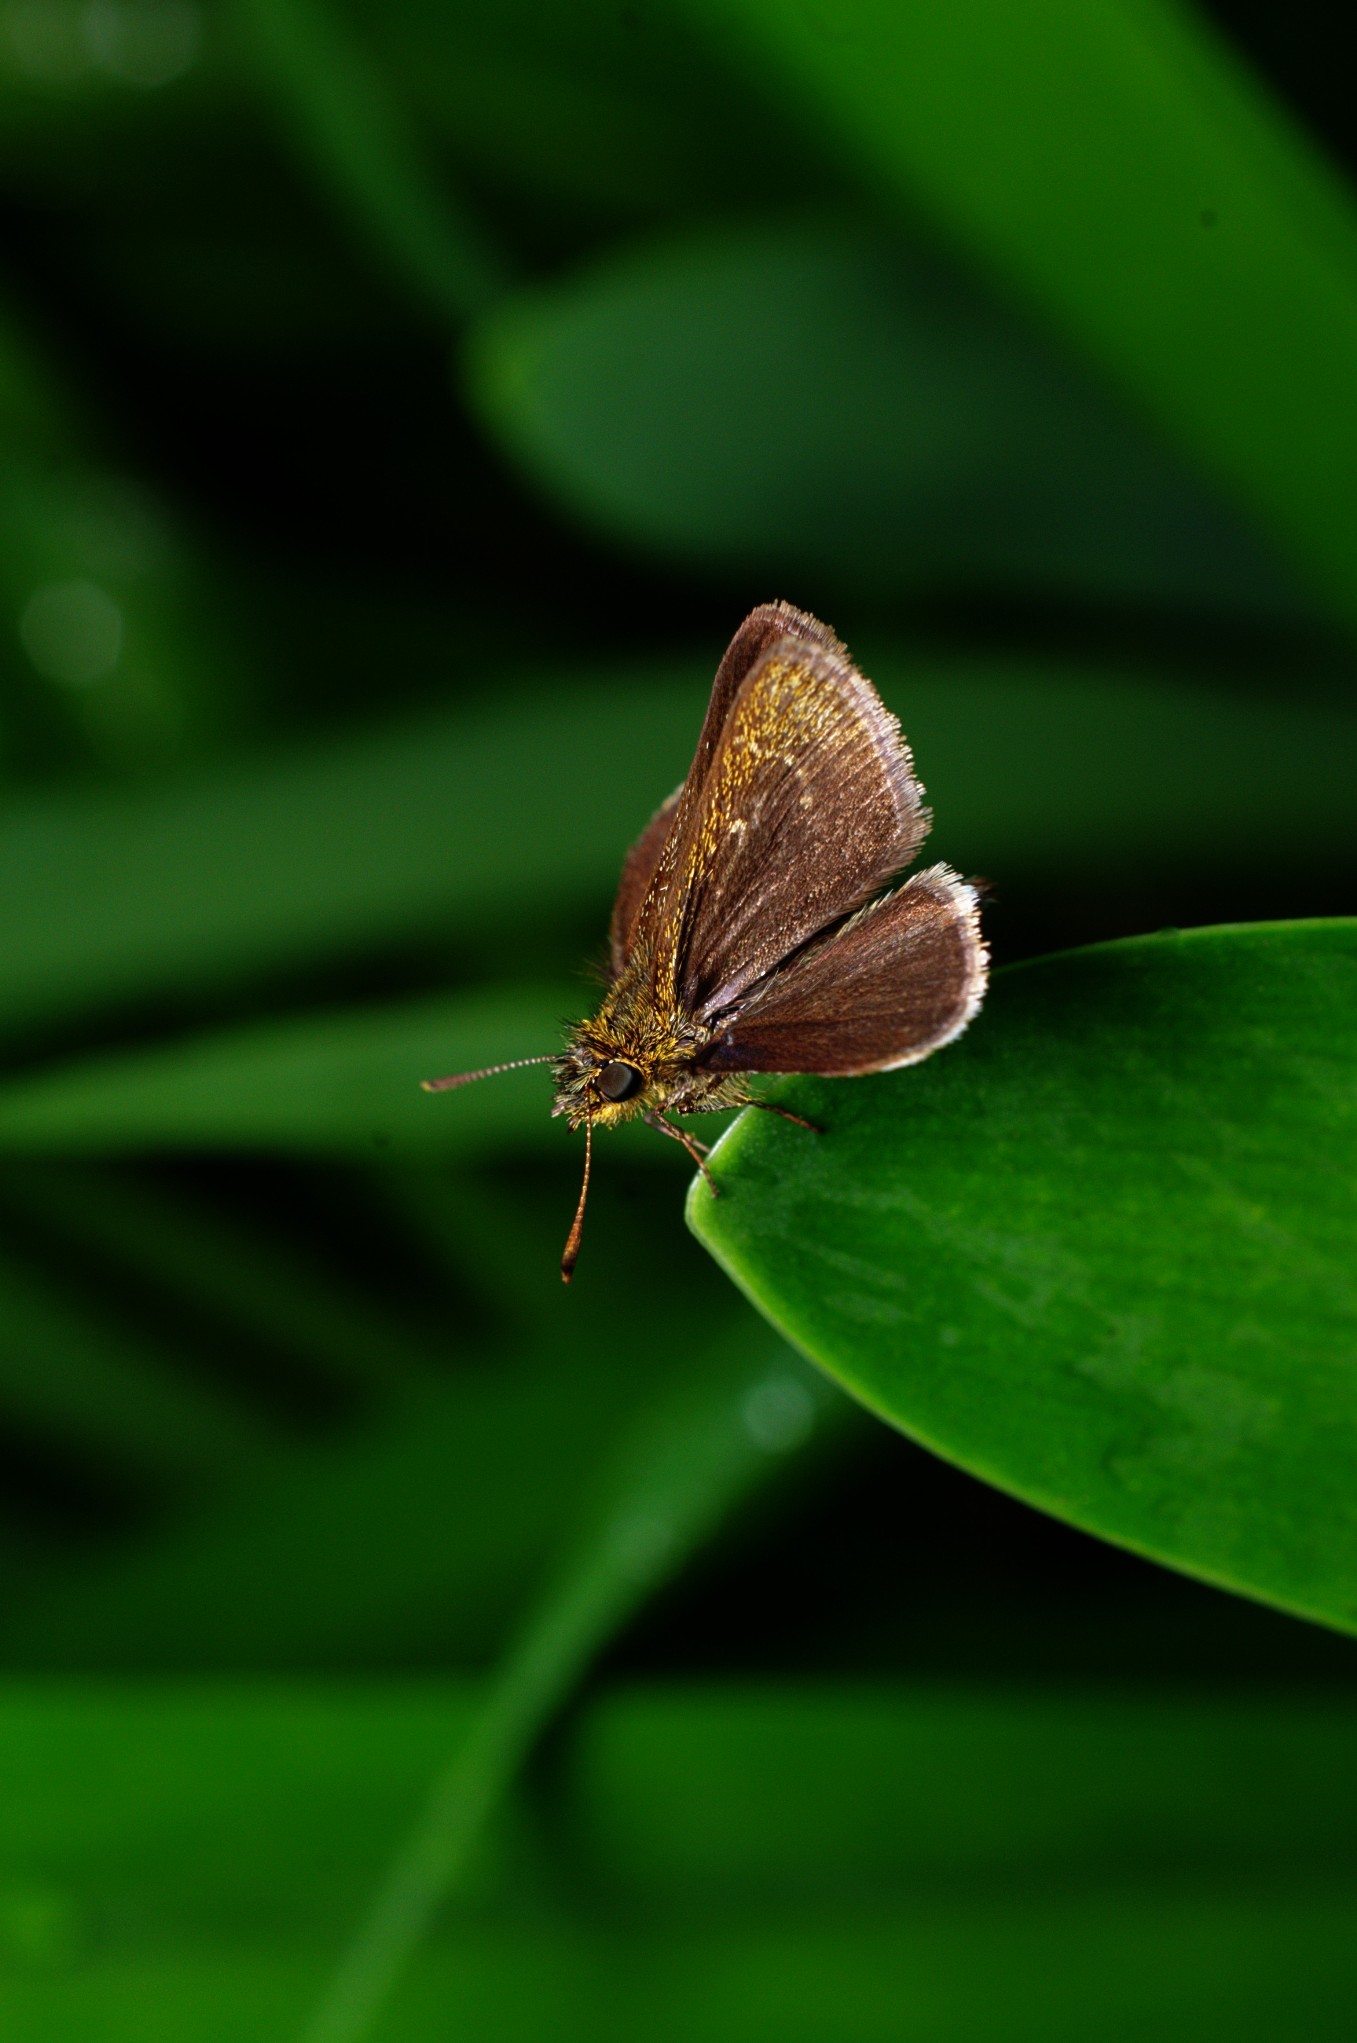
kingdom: Animalia
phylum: Arthropoda
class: Insecta
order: Lepidoptera
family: Hesperiidae
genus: Aeromachus
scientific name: Aeromachus pygmaeus
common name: Pygmy scrub hopper
